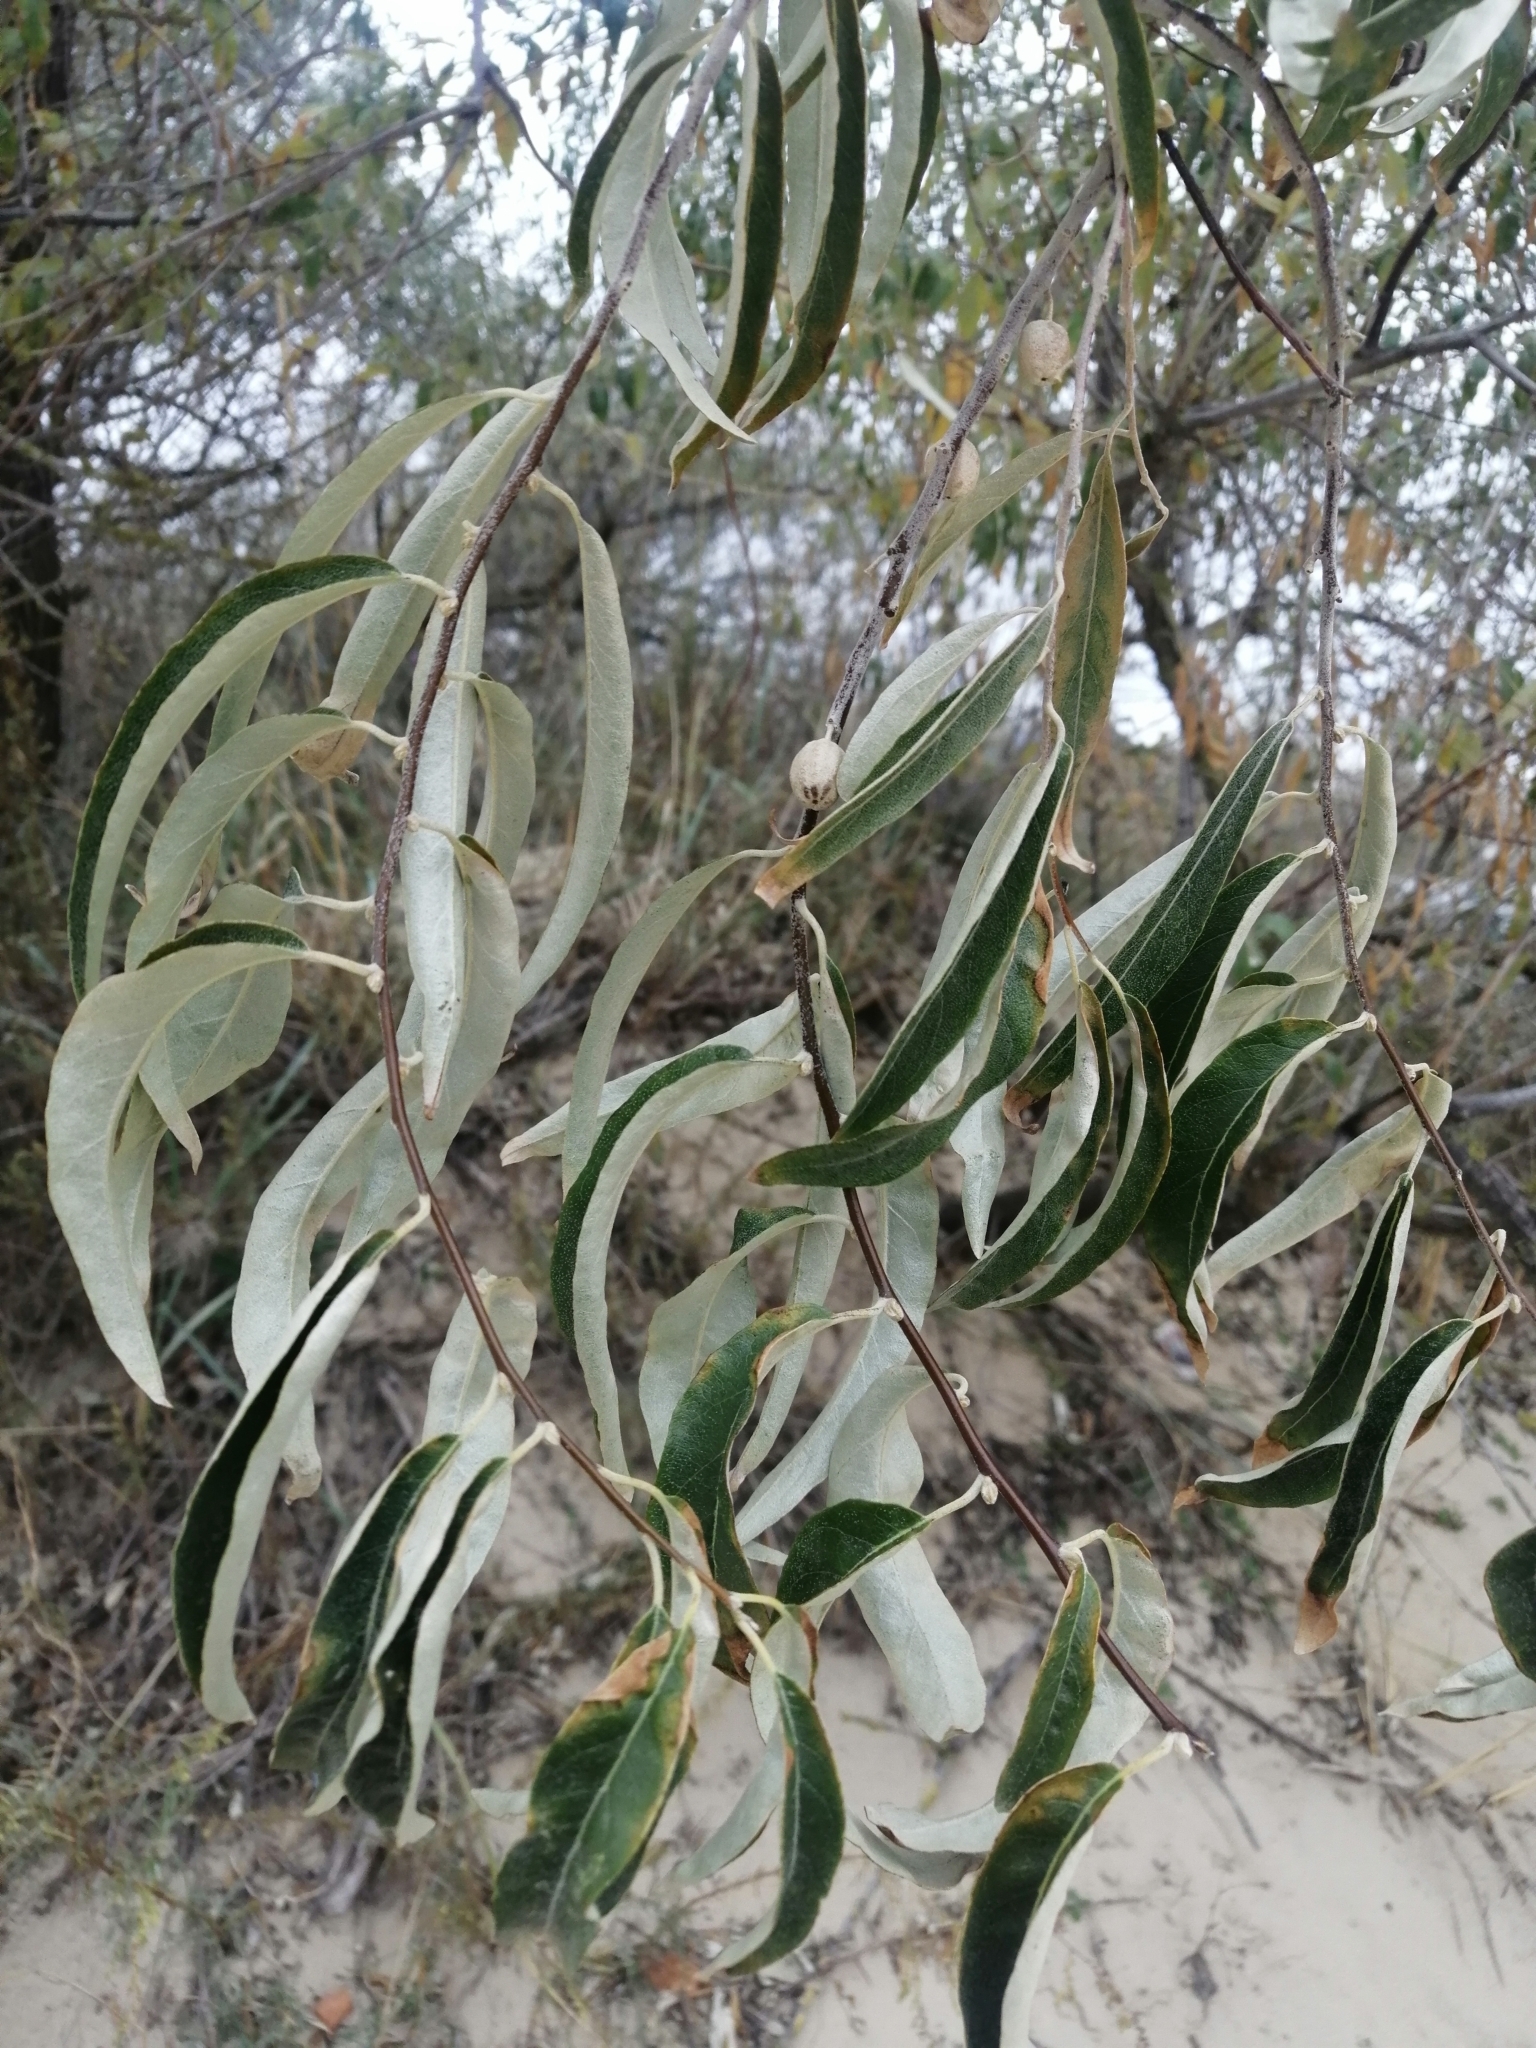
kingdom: Plantae
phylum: Tracheophyta
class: Magnoliopsida
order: Rosales
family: Elaeagnaceae
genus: Elaeagnus
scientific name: Elaeagnus angustifolia
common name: Russian olive
